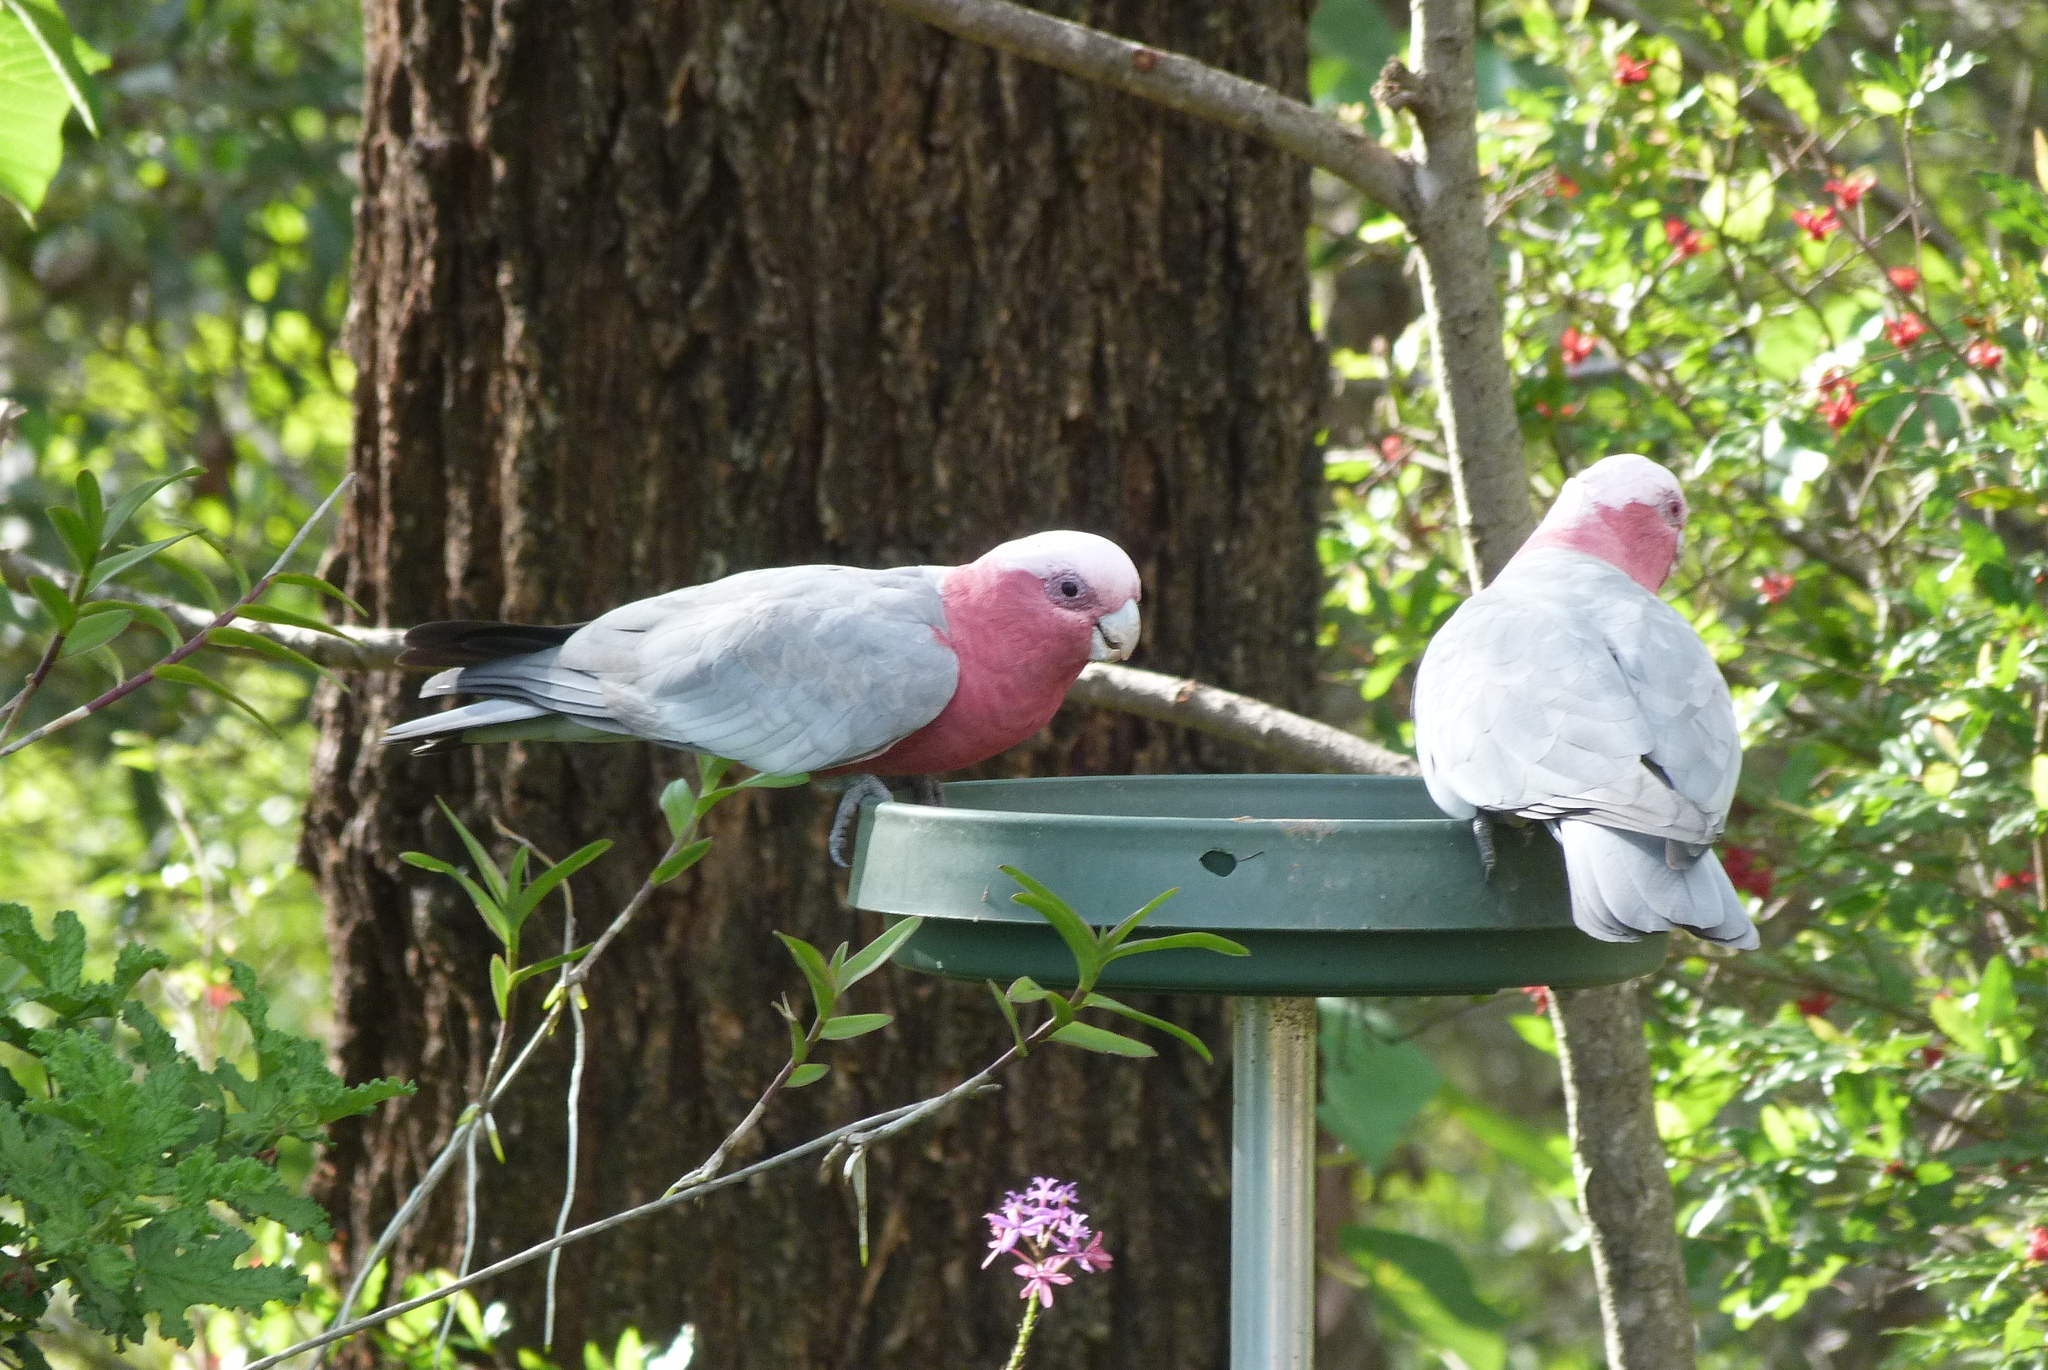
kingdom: Animalia
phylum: Chordata
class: Aves
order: Psittaciformes
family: Psittacidae
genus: Eolophus
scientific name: Eolophus roseicapilla
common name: Galah
